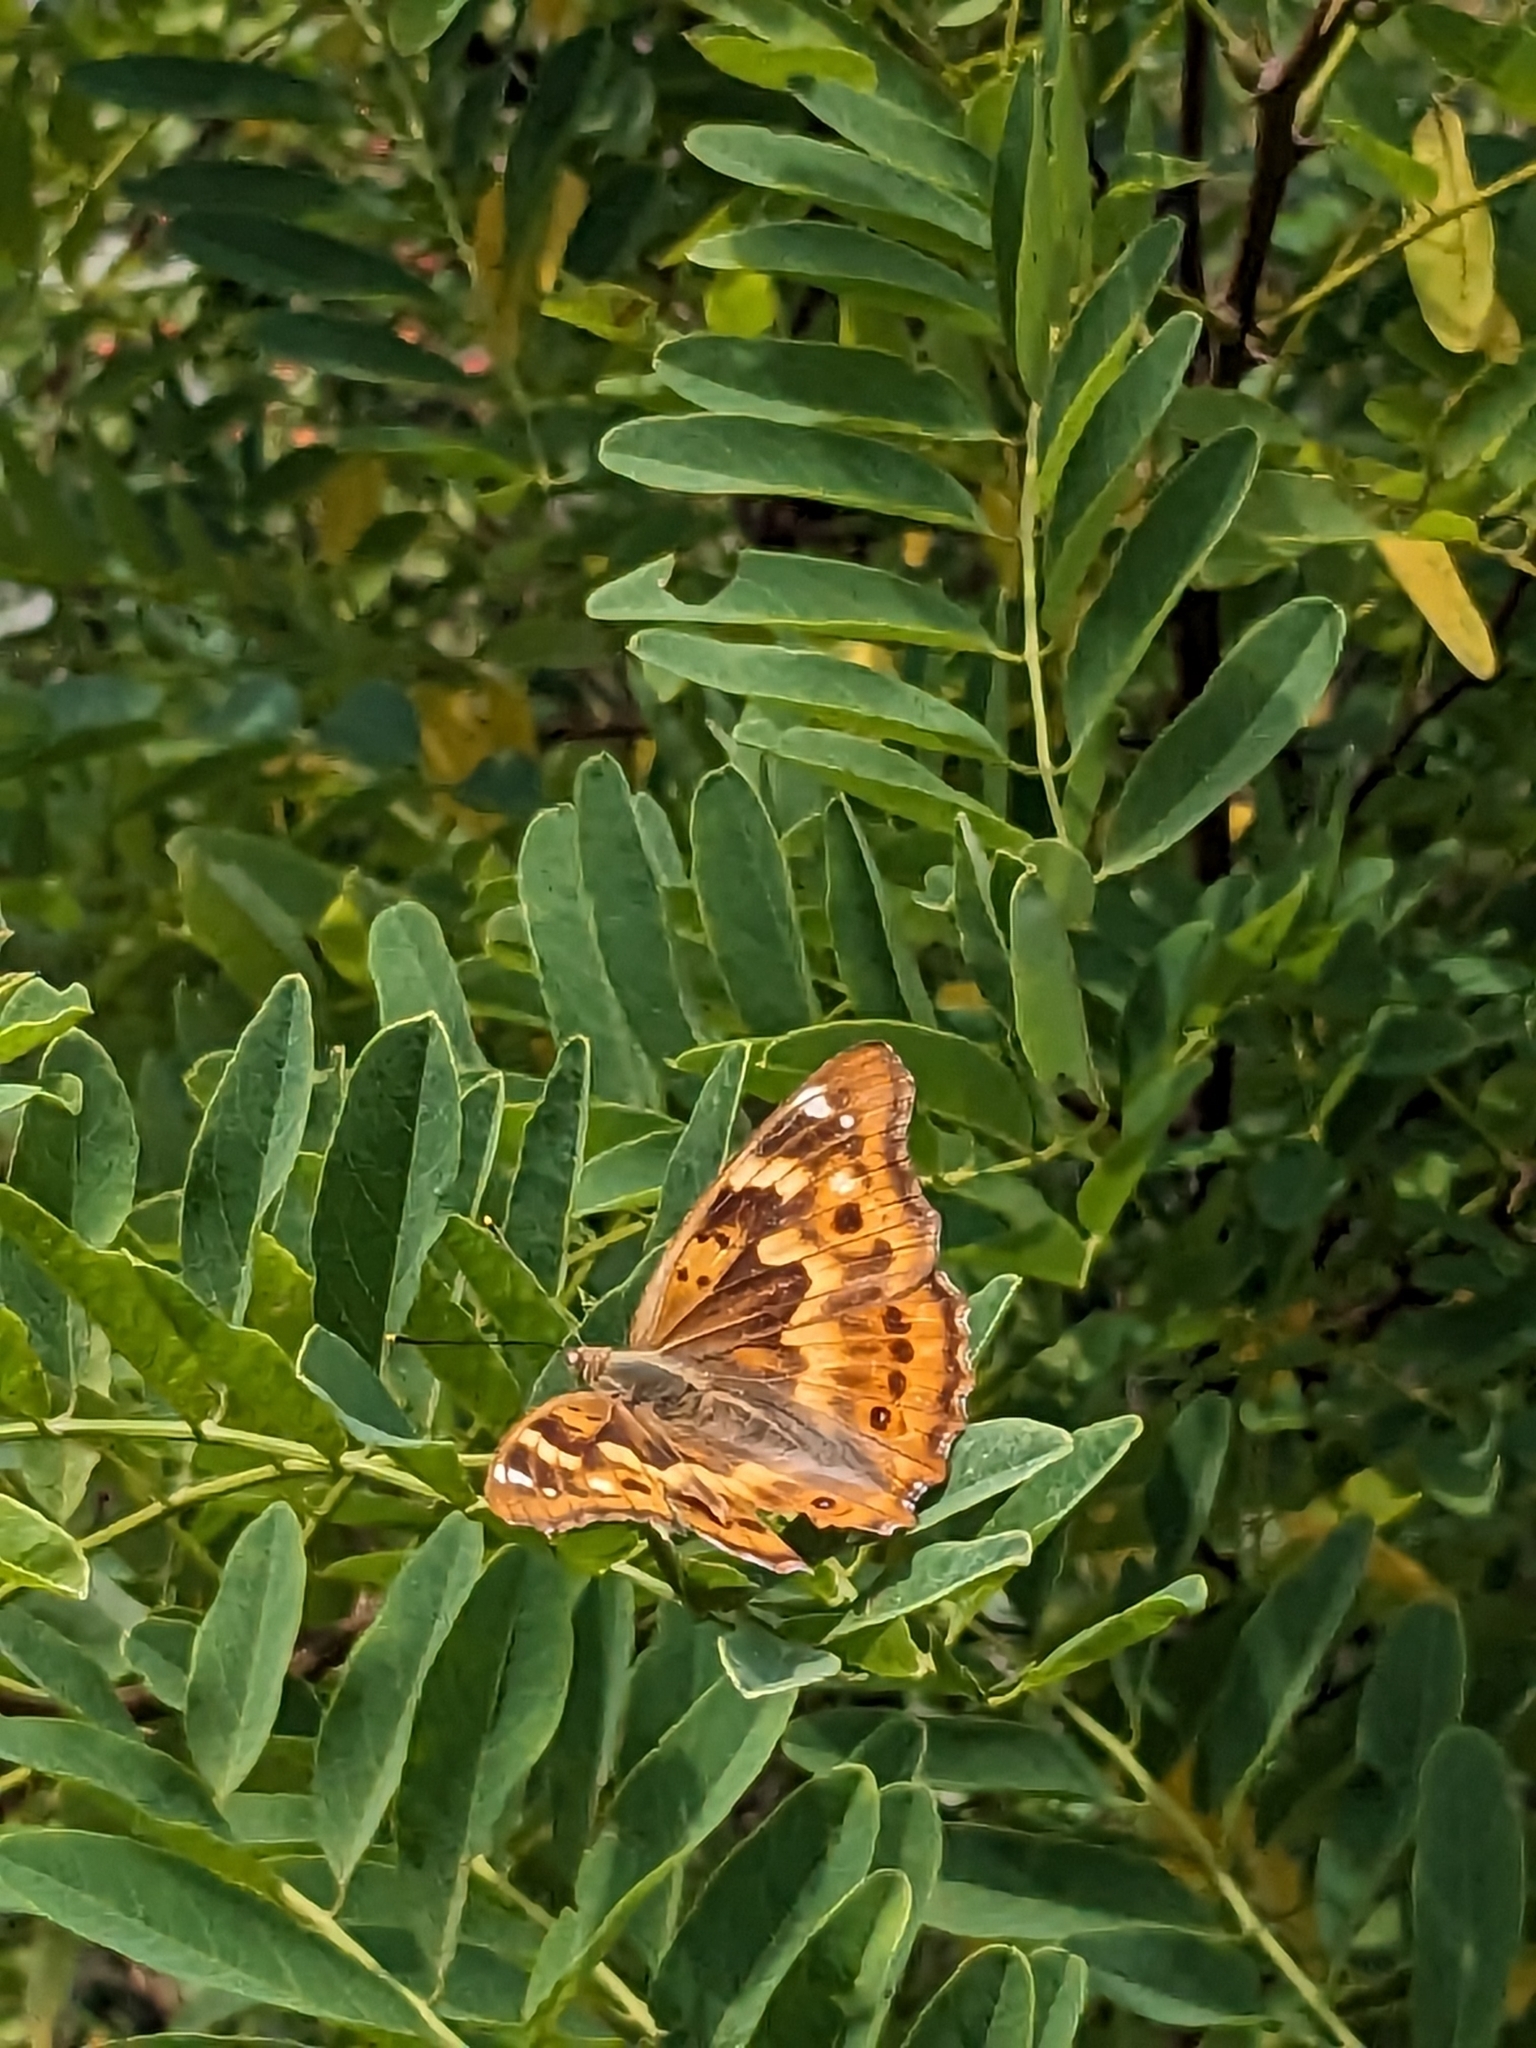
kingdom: Animalia
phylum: Arthropoda
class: Insecta
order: Lepidoptera
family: Nymphalidae
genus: Apatura
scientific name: Apatura ilia
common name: Lesser purple emperor
